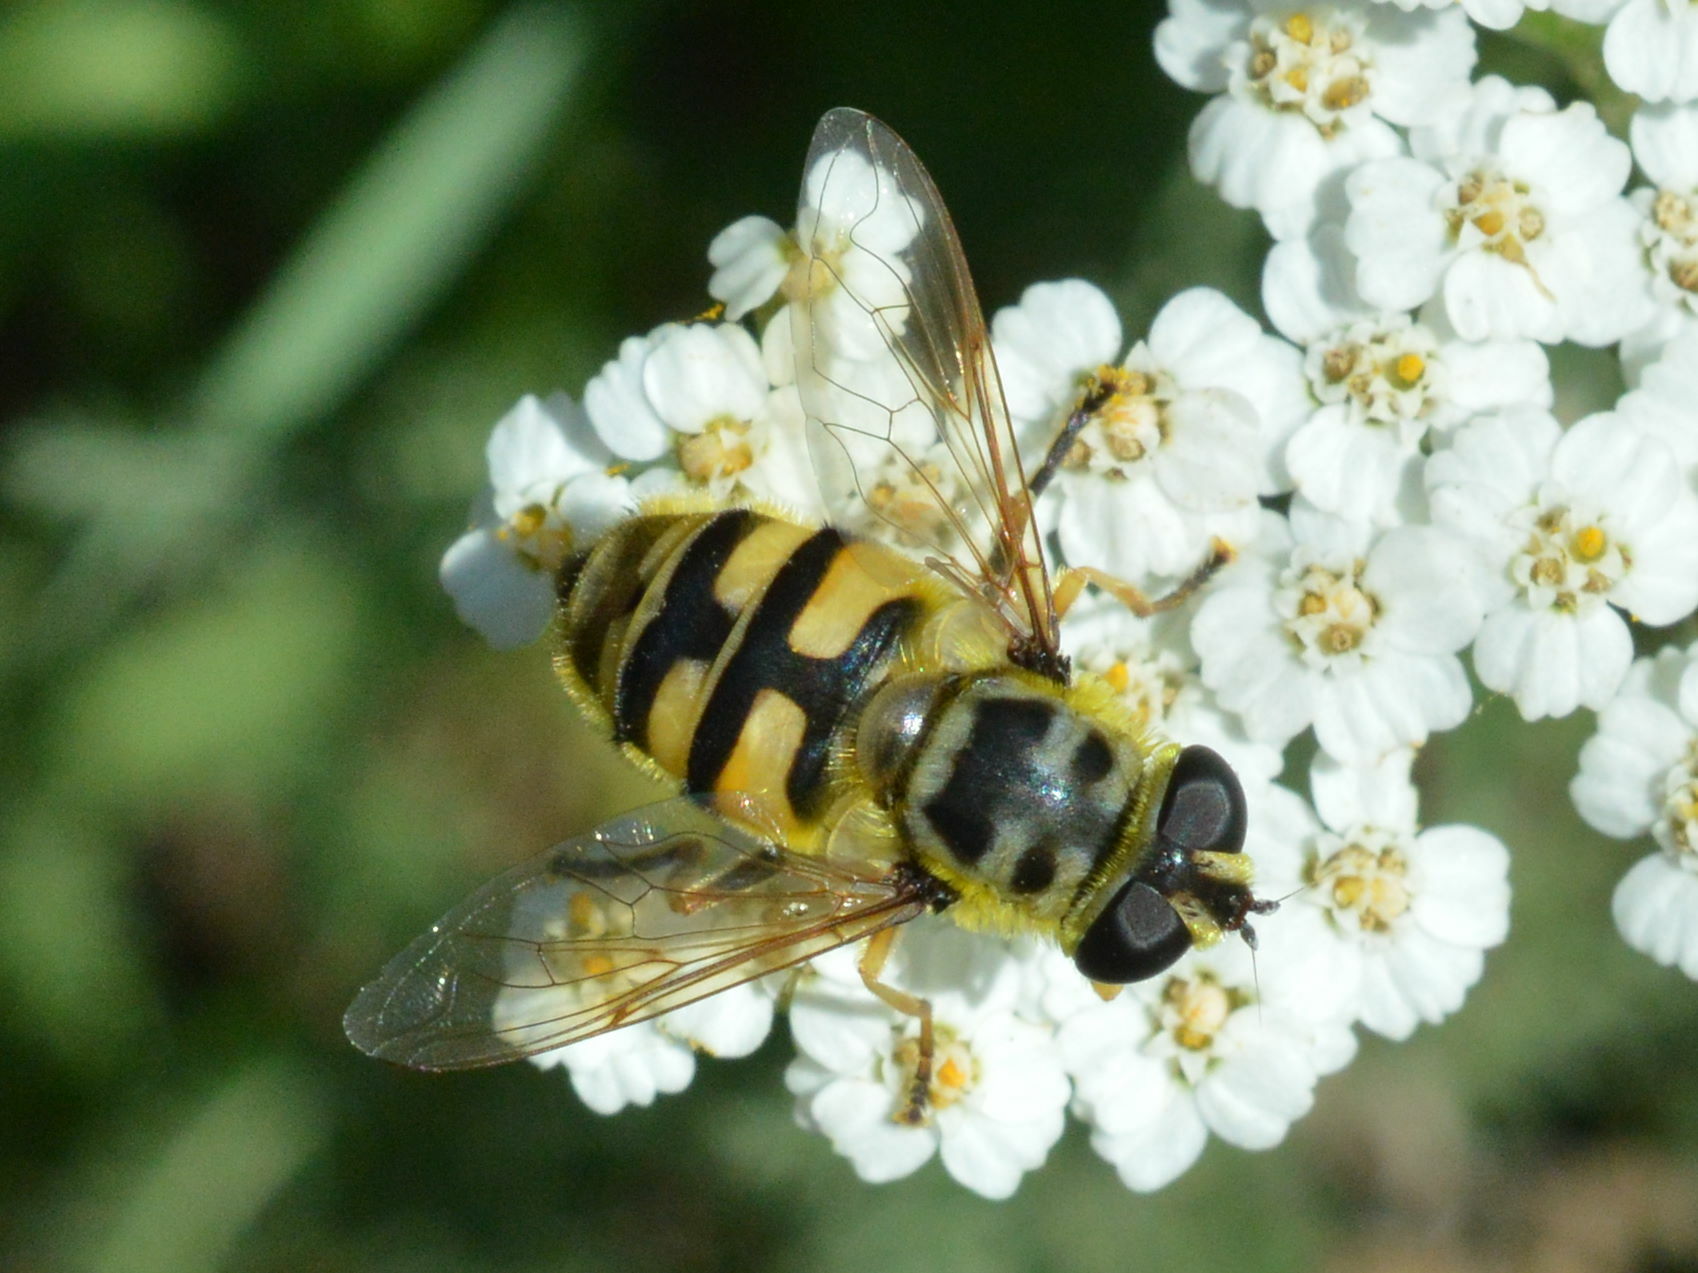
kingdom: Animalia
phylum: Arthropoda
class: Insecta
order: Diptera
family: Syrphidae
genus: Myathropa
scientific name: Myathropa florea
